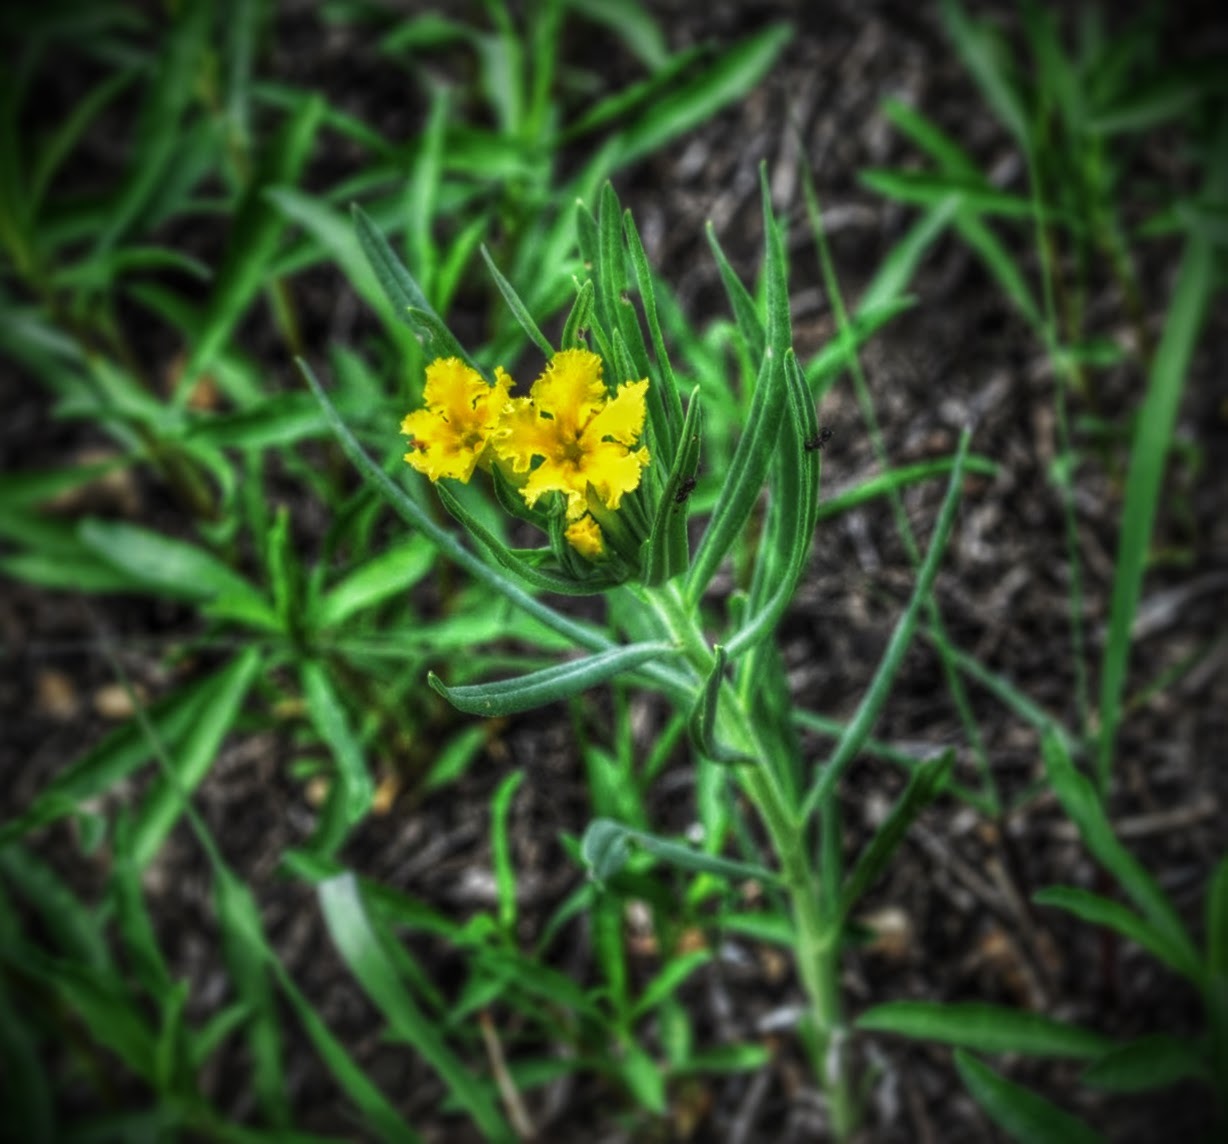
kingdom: Plantae
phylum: Tracheophyta
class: Magnoliopsida
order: Boraginales
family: Boraginaceae
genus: Lithospermum
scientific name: Lithospermum incisum
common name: Fringed gromwell
